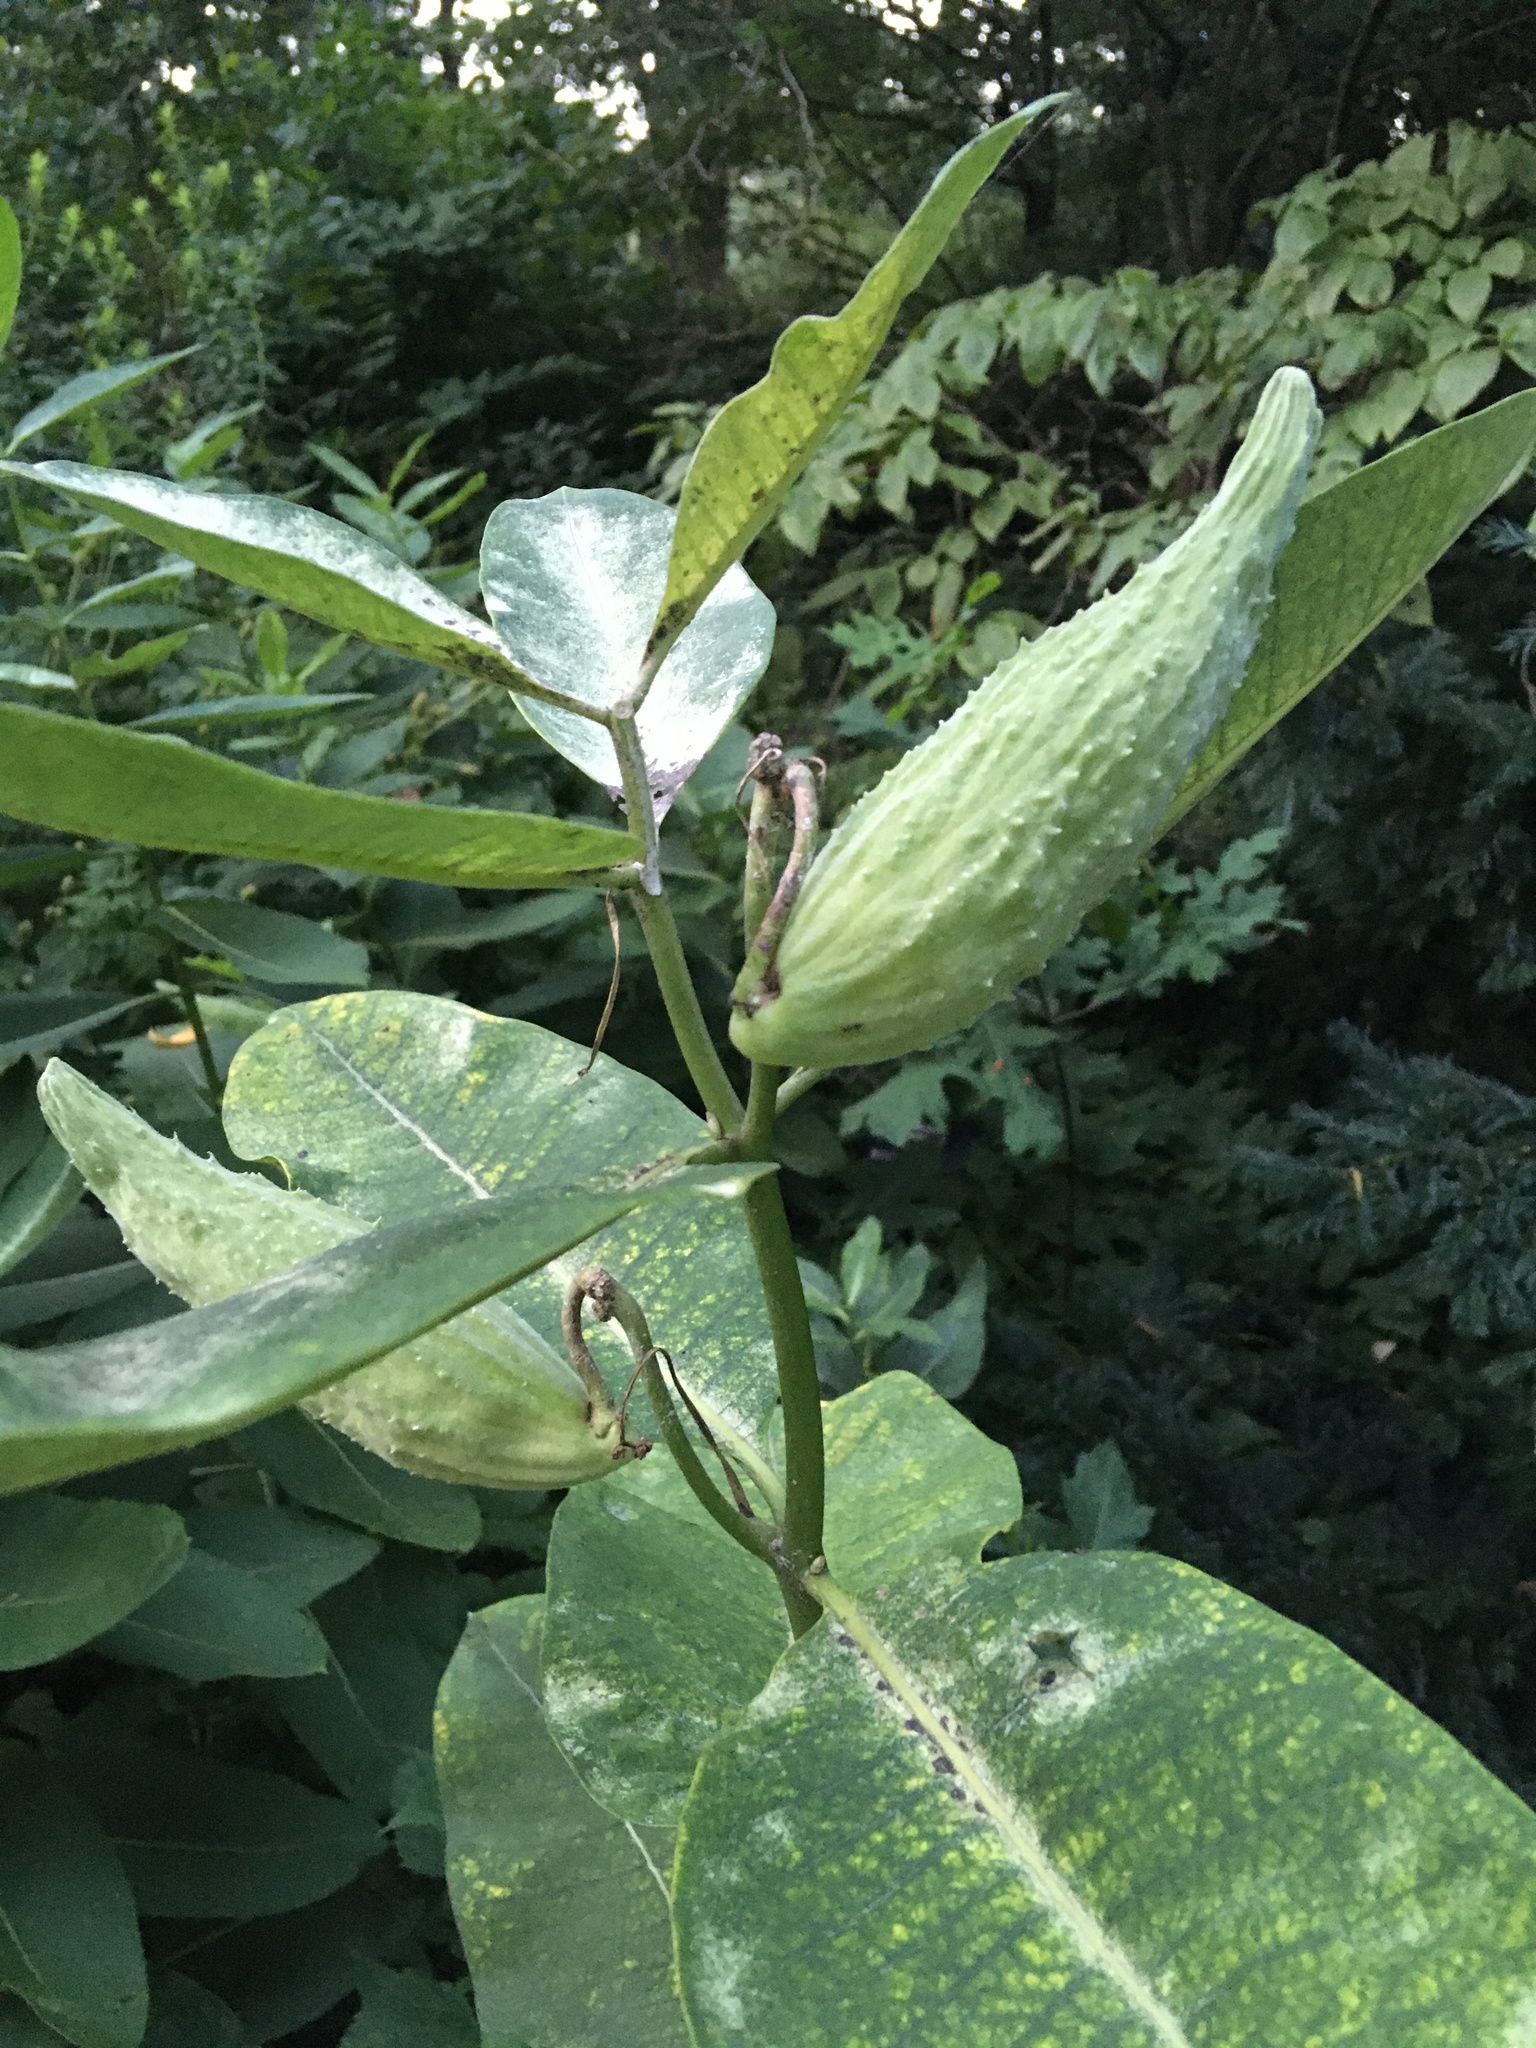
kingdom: Plantae
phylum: Tracheophyta
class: Magnoliopsida
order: Gentianales
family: Apocynaceae
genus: Asclepias
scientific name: Asclepias syriaca
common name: Common milkweed
